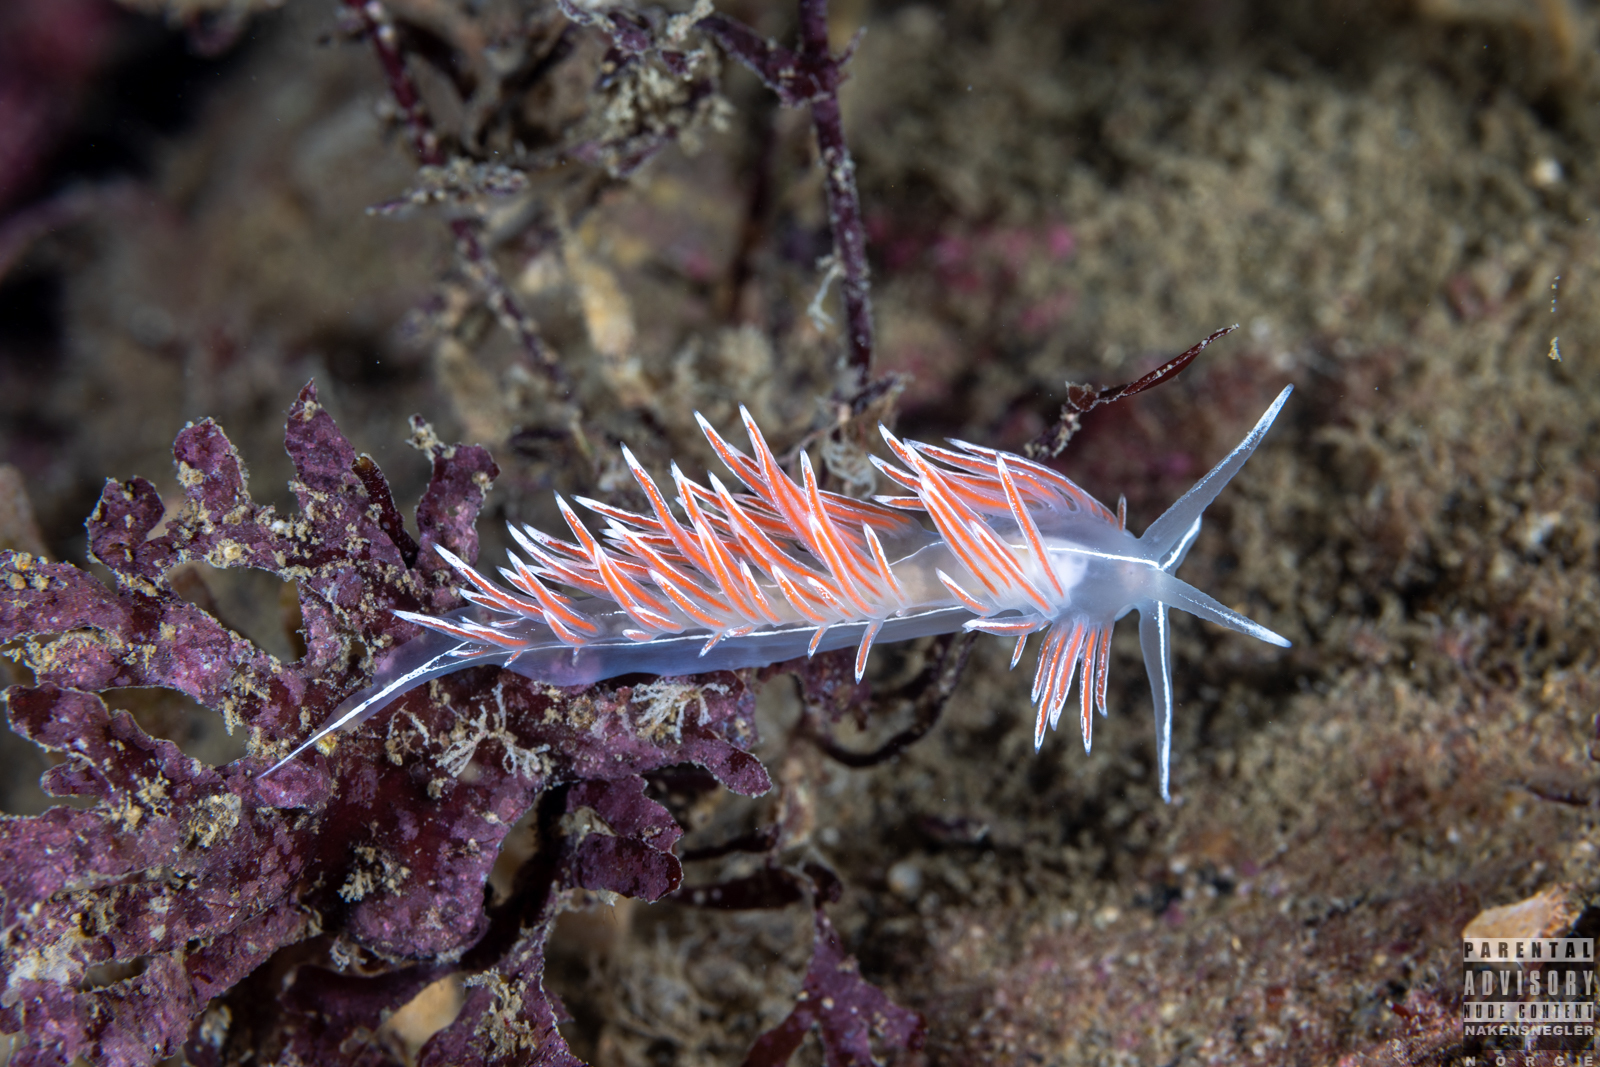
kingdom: Animalia
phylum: Mollusca
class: Gastropoda
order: Nudibranchia
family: Coryphellidae
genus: Coryphella
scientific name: Coryphella lineata
